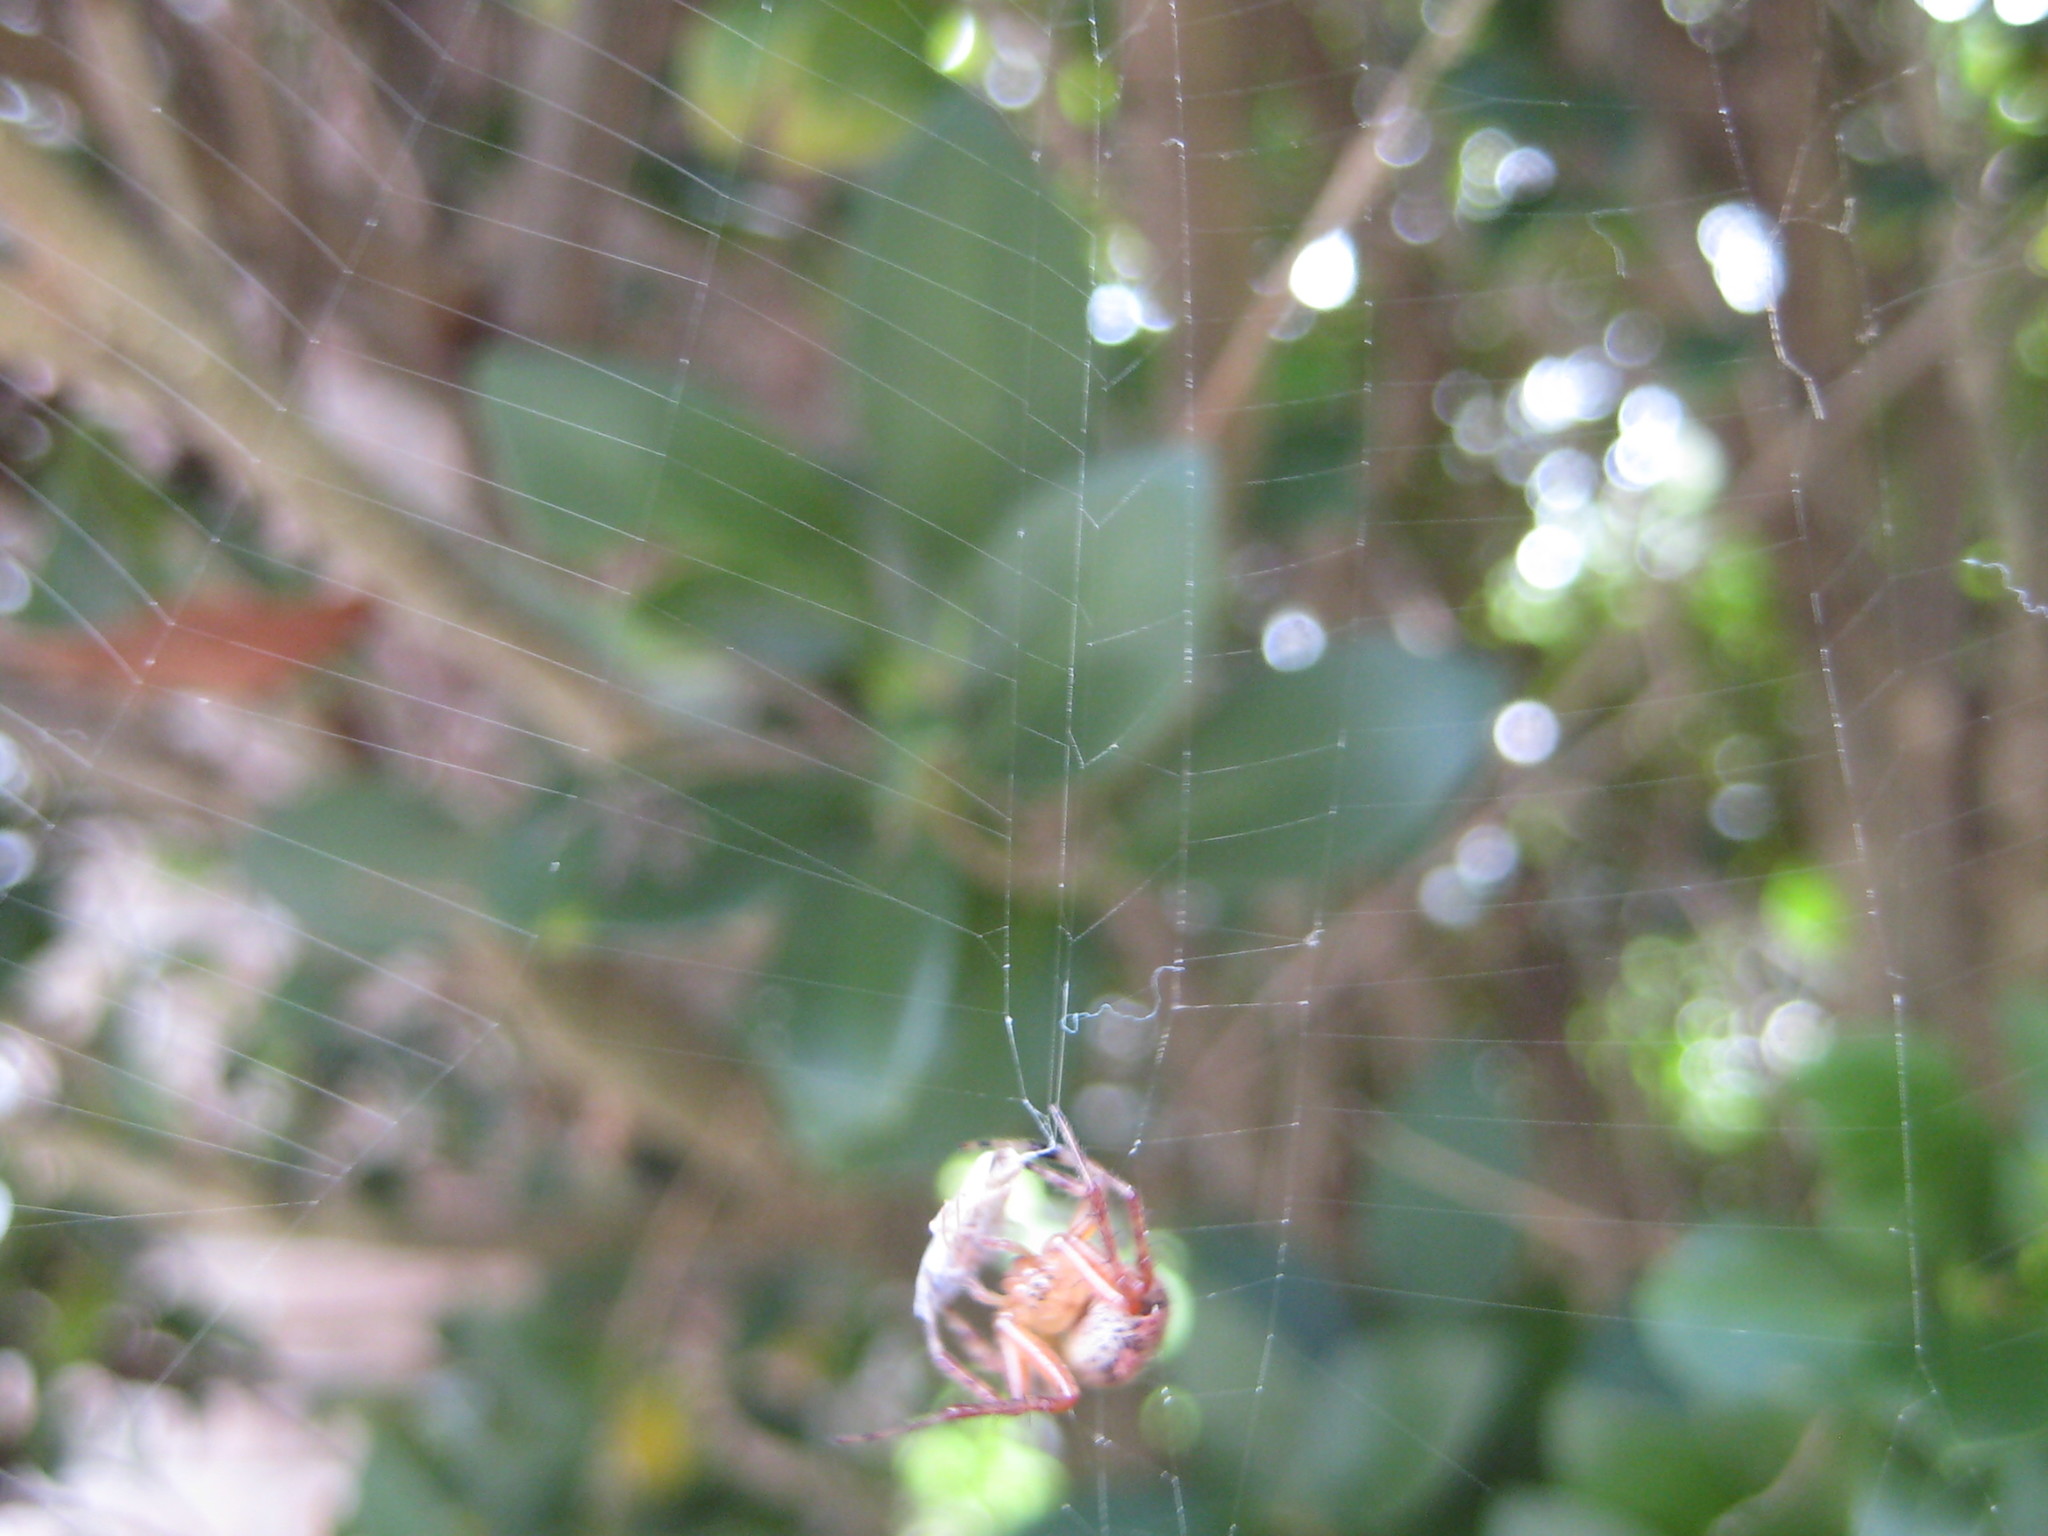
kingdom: Animalia
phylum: Arthropoda
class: Arachnida
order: Araneae
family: Araneidae
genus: Araneus
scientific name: Araneus pegnia
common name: Orb weavers
